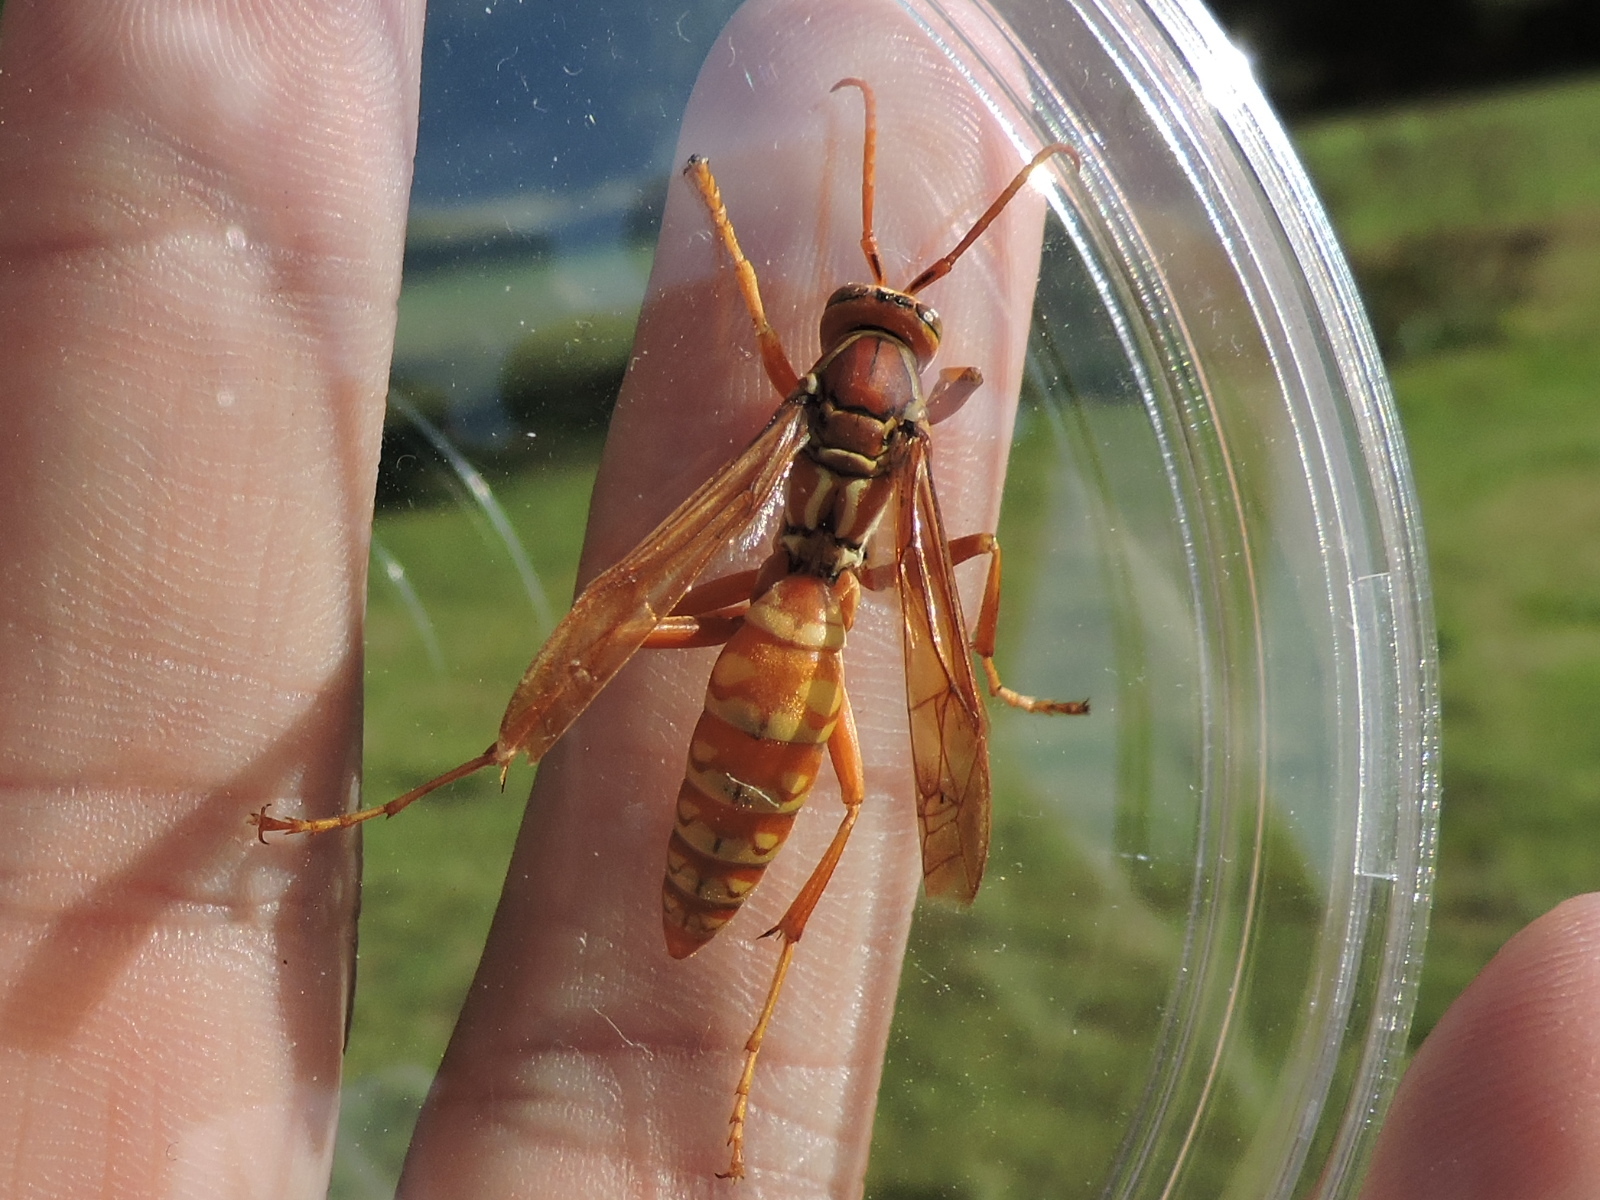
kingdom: Animalia
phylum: Arthropoda
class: Insecta
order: Hymenoptera
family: Eumenidae
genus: Polistes
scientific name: Polistes apachus
